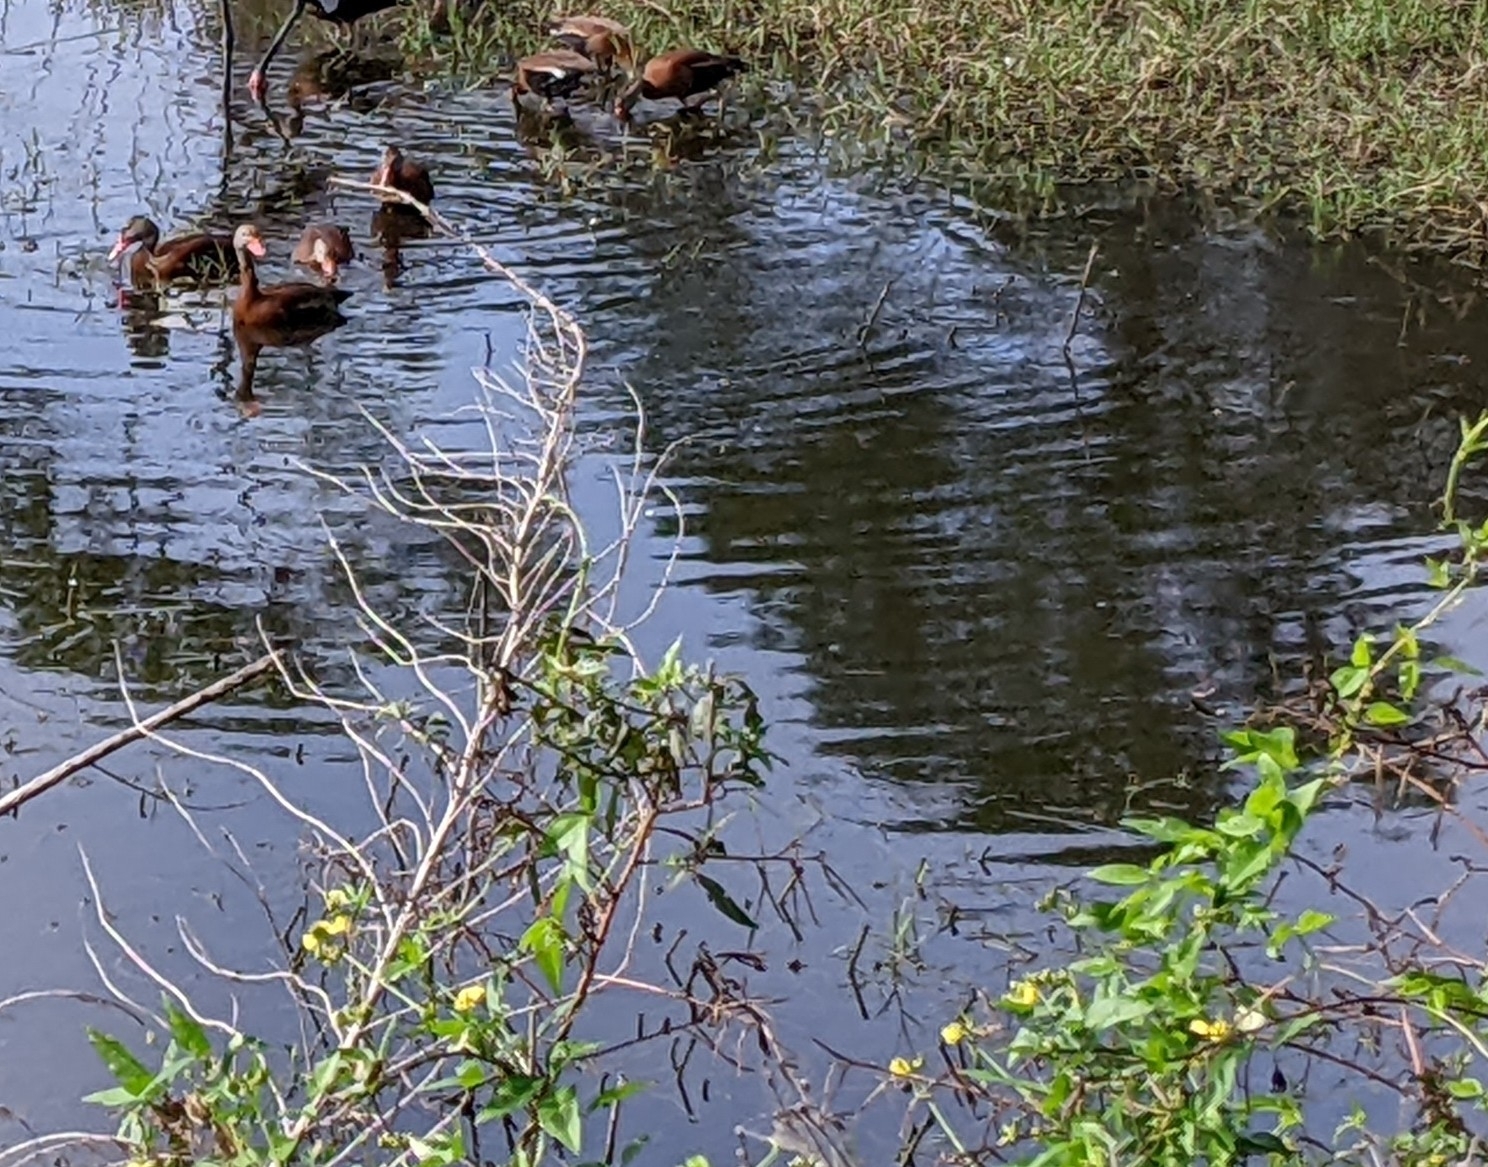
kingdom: Animalia
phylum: Chordata
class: Aves
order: Anseriformes
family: Anatidae
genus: Dendrocygna
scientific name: Dendrocygna autumnalis
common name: Black-bellied whistling duck
